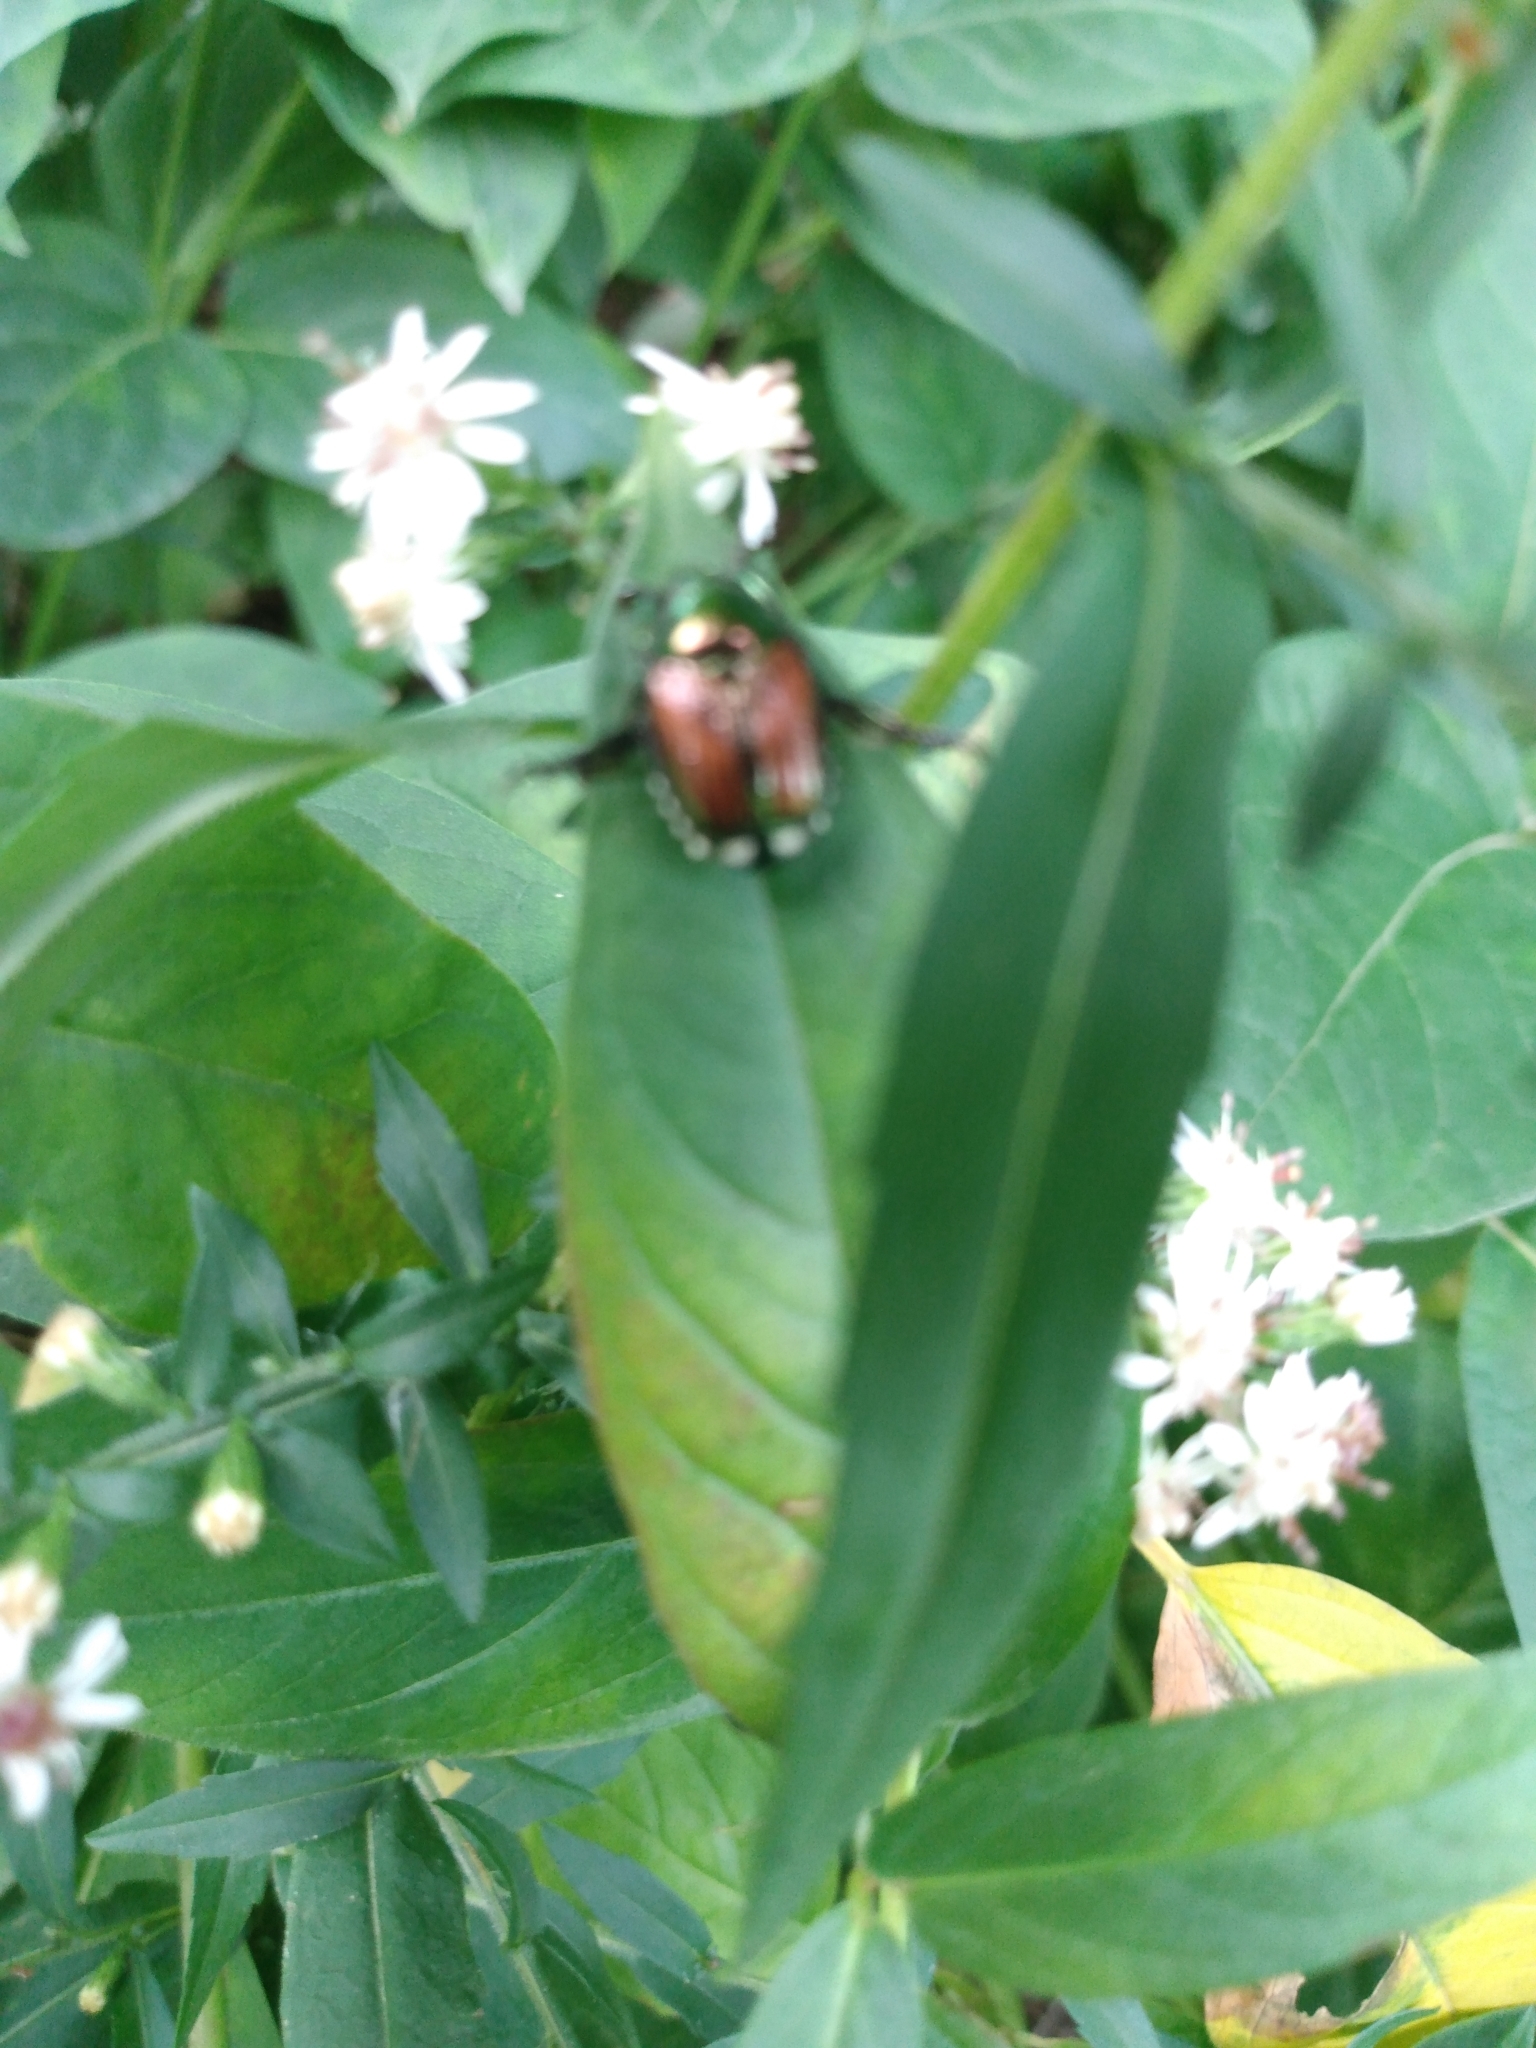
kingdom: Animalia
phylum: Arthropoda
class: Insecta
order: Coleoptera
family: Scarabaeidae
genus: Popillia
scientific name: Popillia japonica
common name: Japanese beetle
